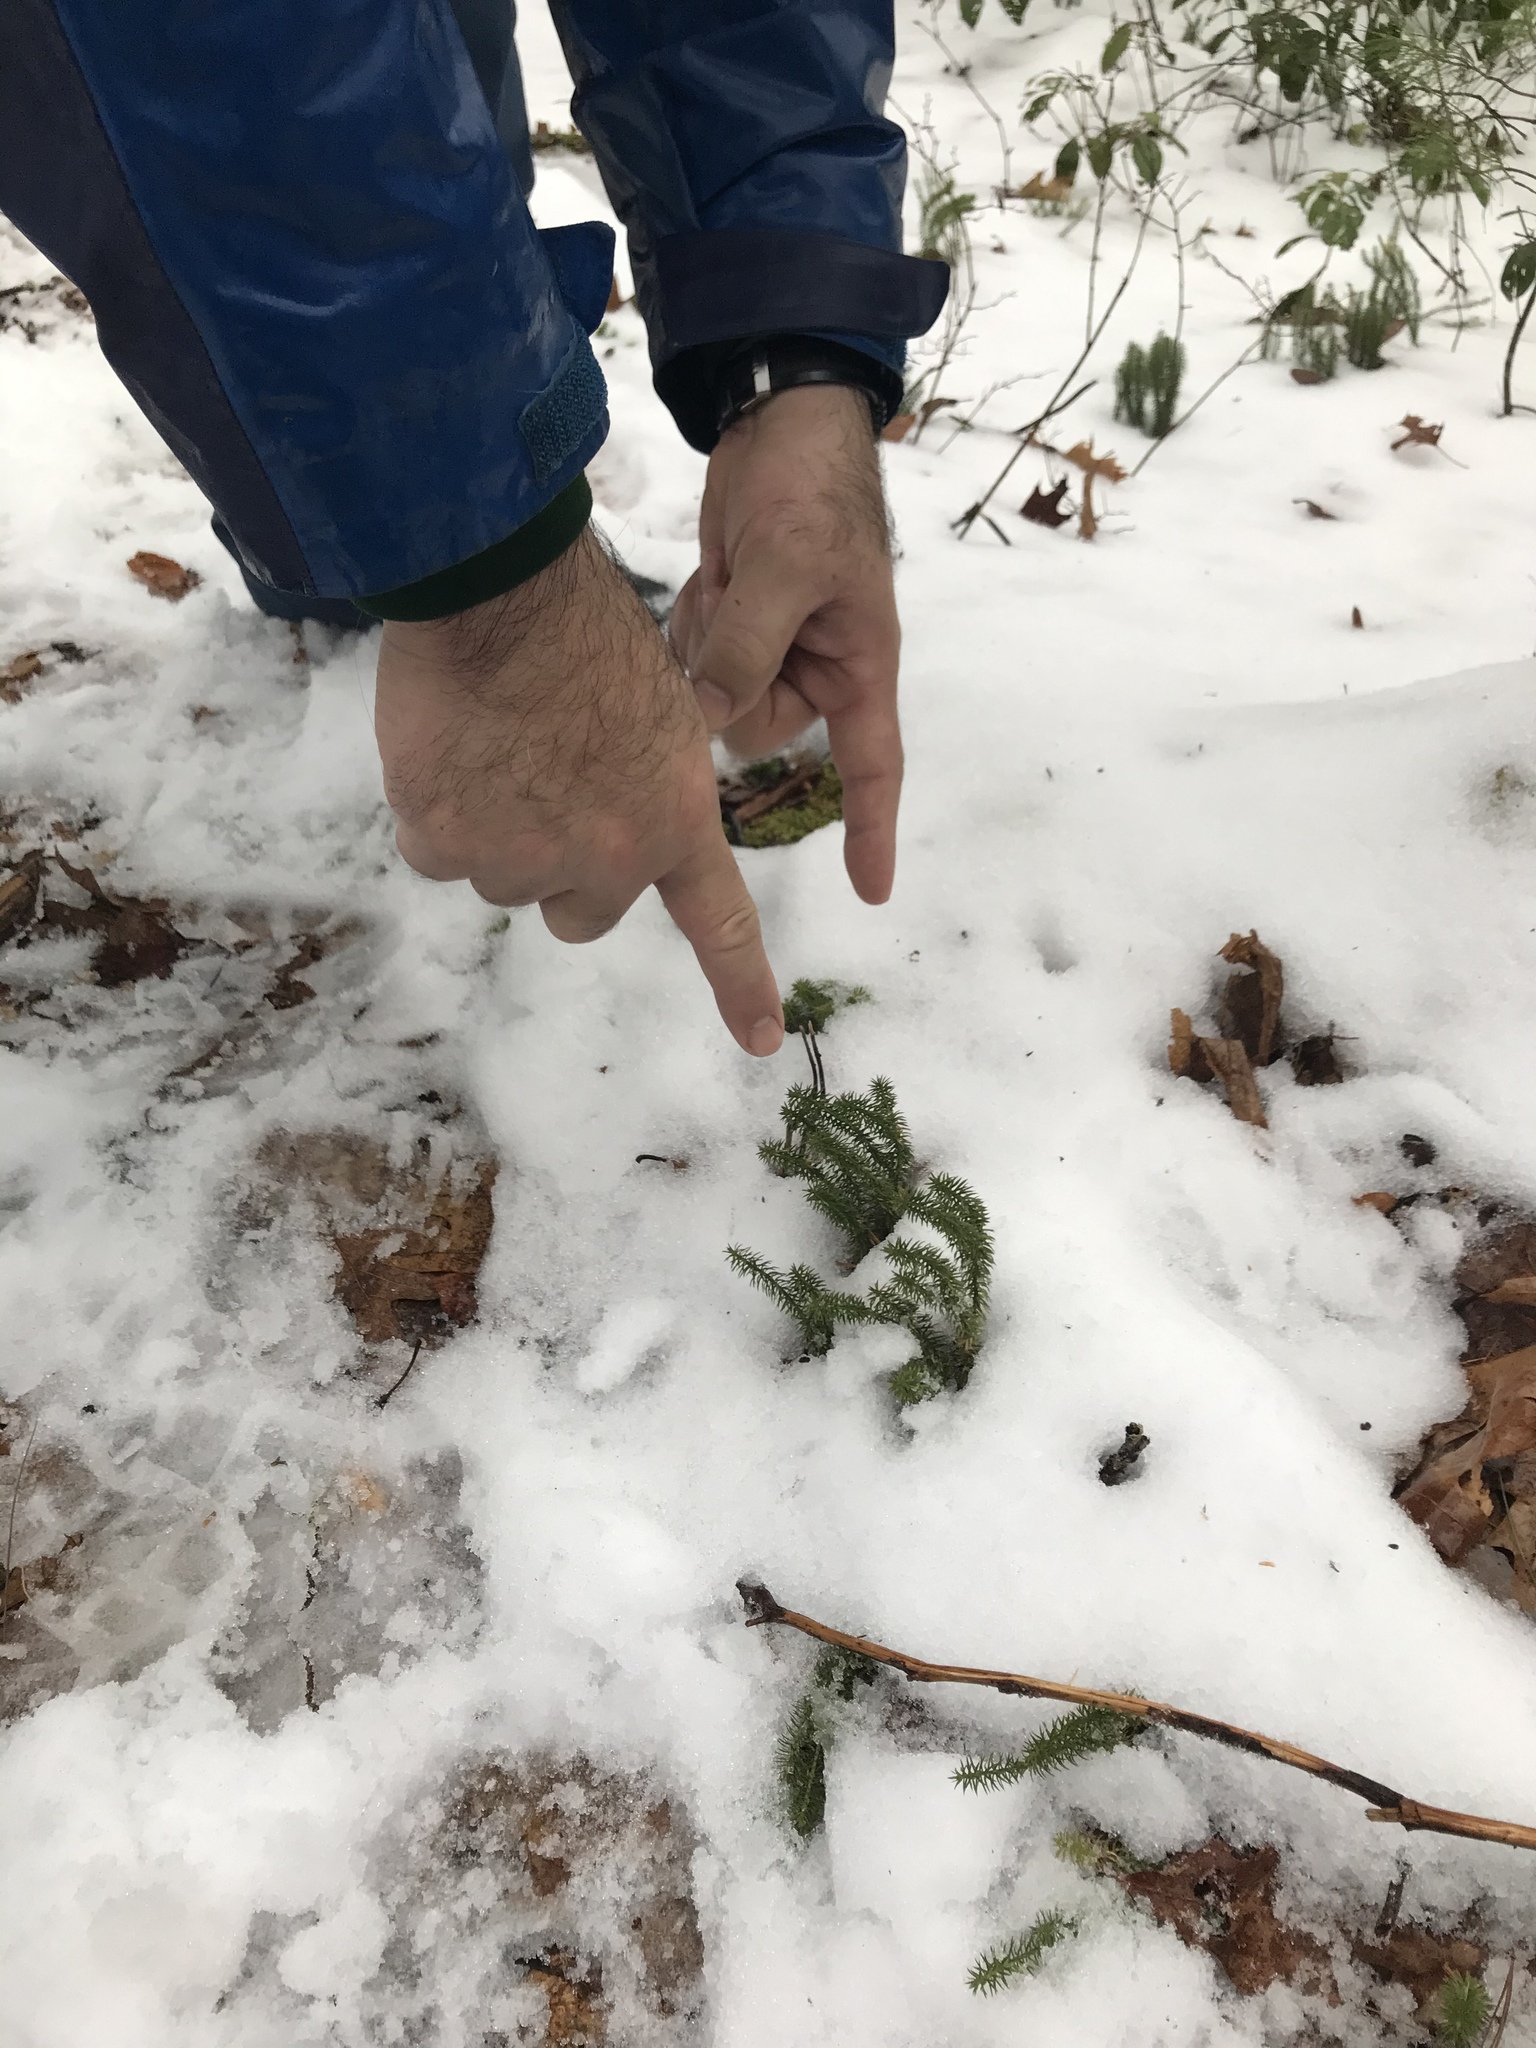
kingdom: Plantae
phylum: Tracheophyta
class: Lycopodiopsida
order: Lycopodiales
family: Lycopodiaceae
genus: Spinulum
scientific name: Spinulum annotinum
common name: Interrupted club-moss
